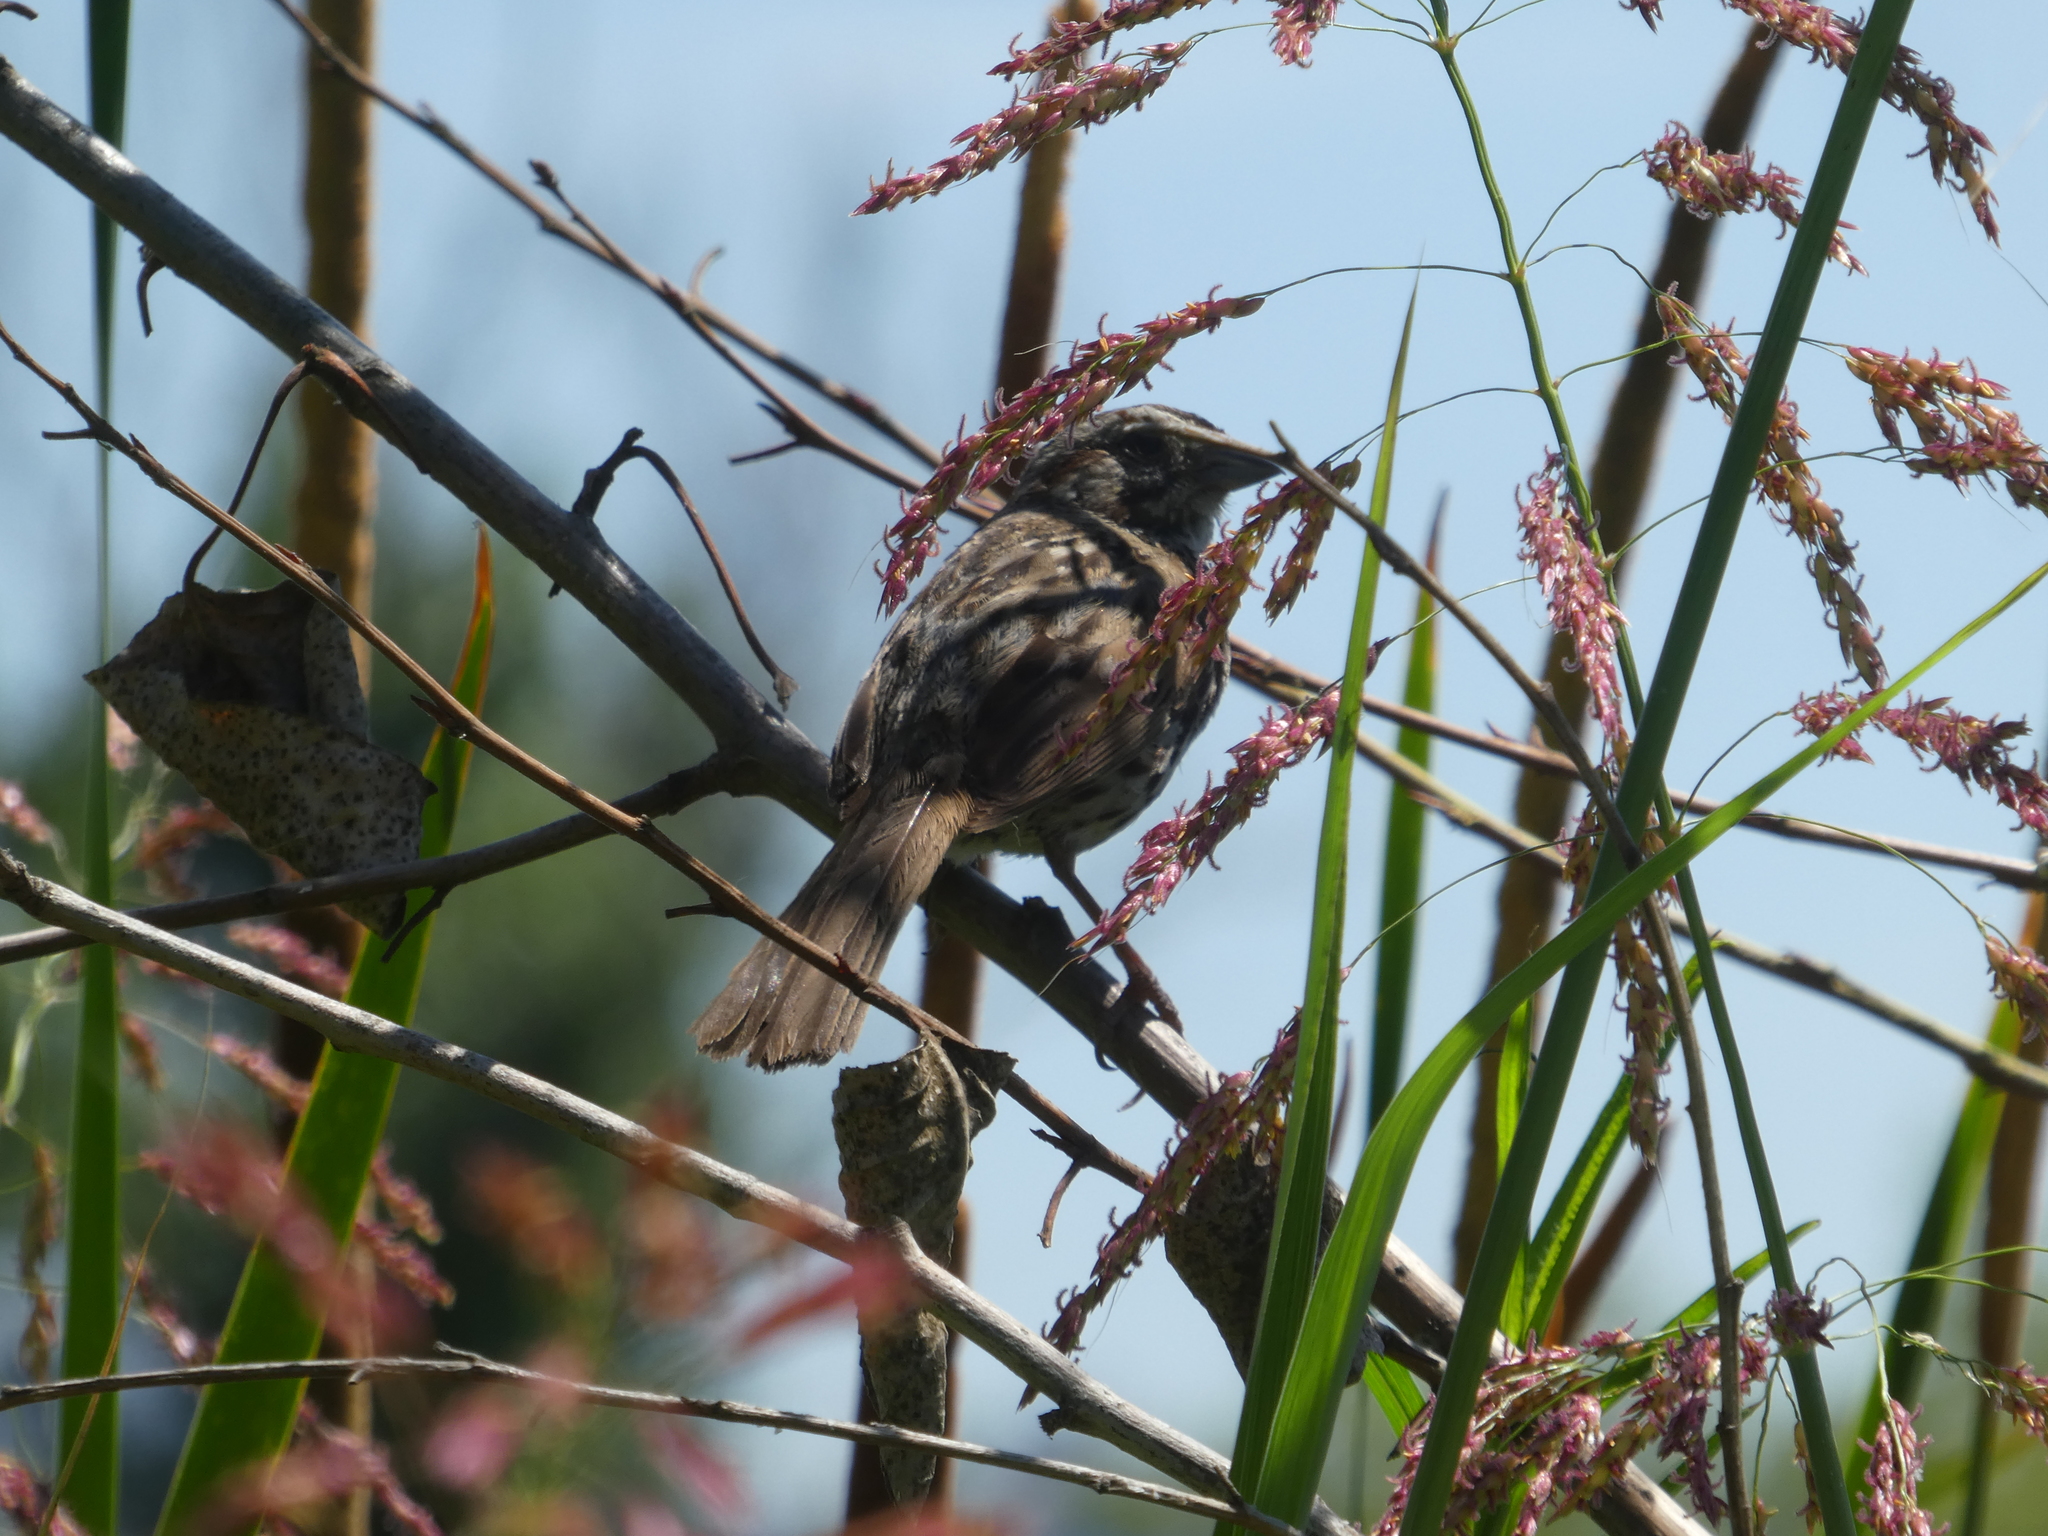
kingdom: Animalia
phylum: Chordata
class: Aves
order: Passeriformes
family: Passerellidae
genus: Melospiza
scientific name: Melospiza melodia
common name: Song sparrow
